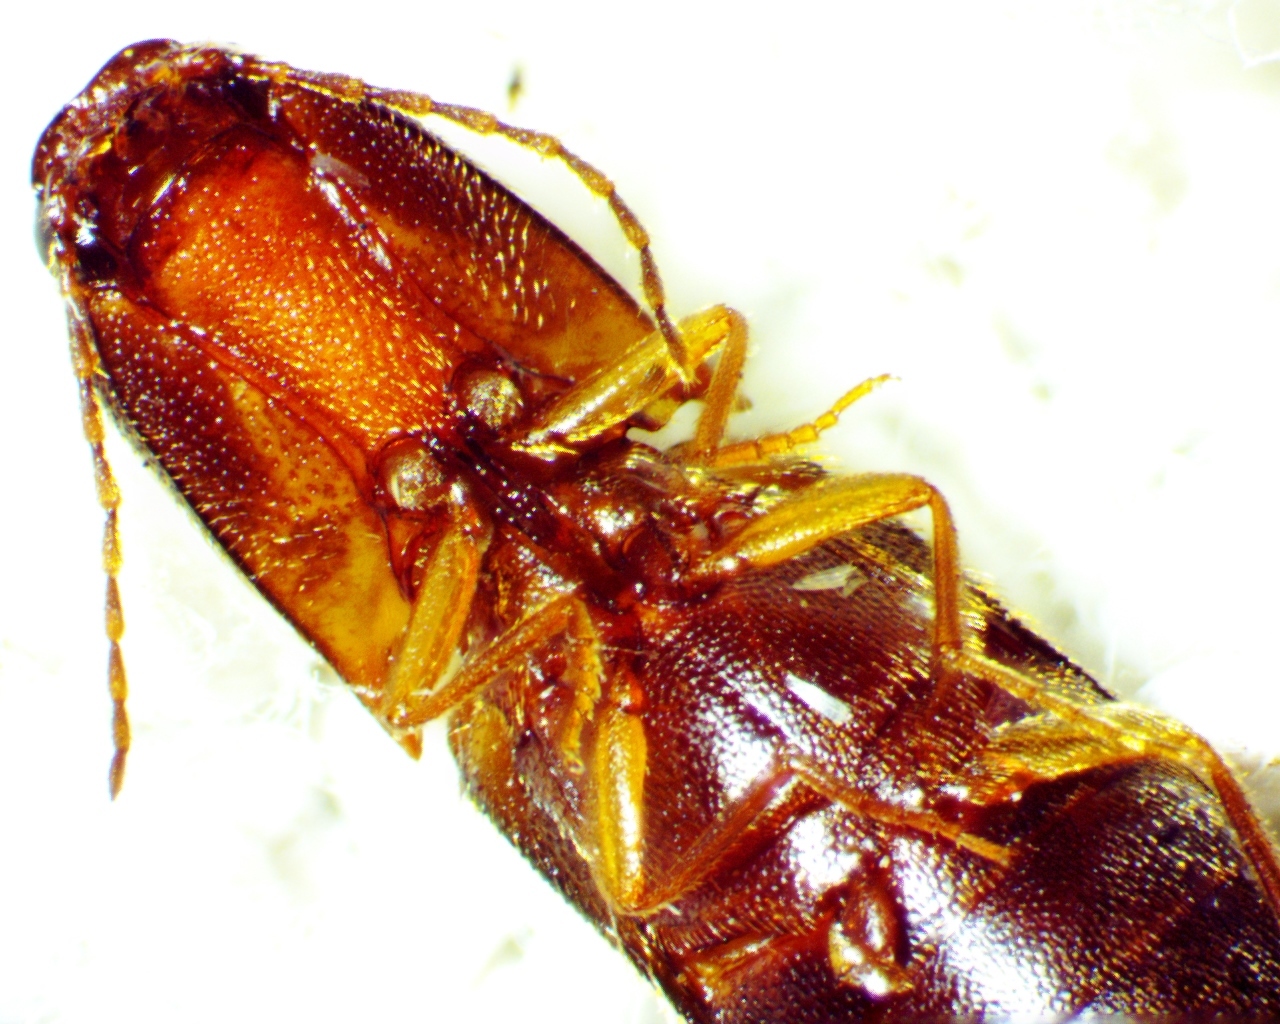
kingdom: Animalia
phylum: Arthropoda
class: Insecta
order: Coleoptera
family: Elateridae
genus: Megapenthes
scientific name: Megapenthes
